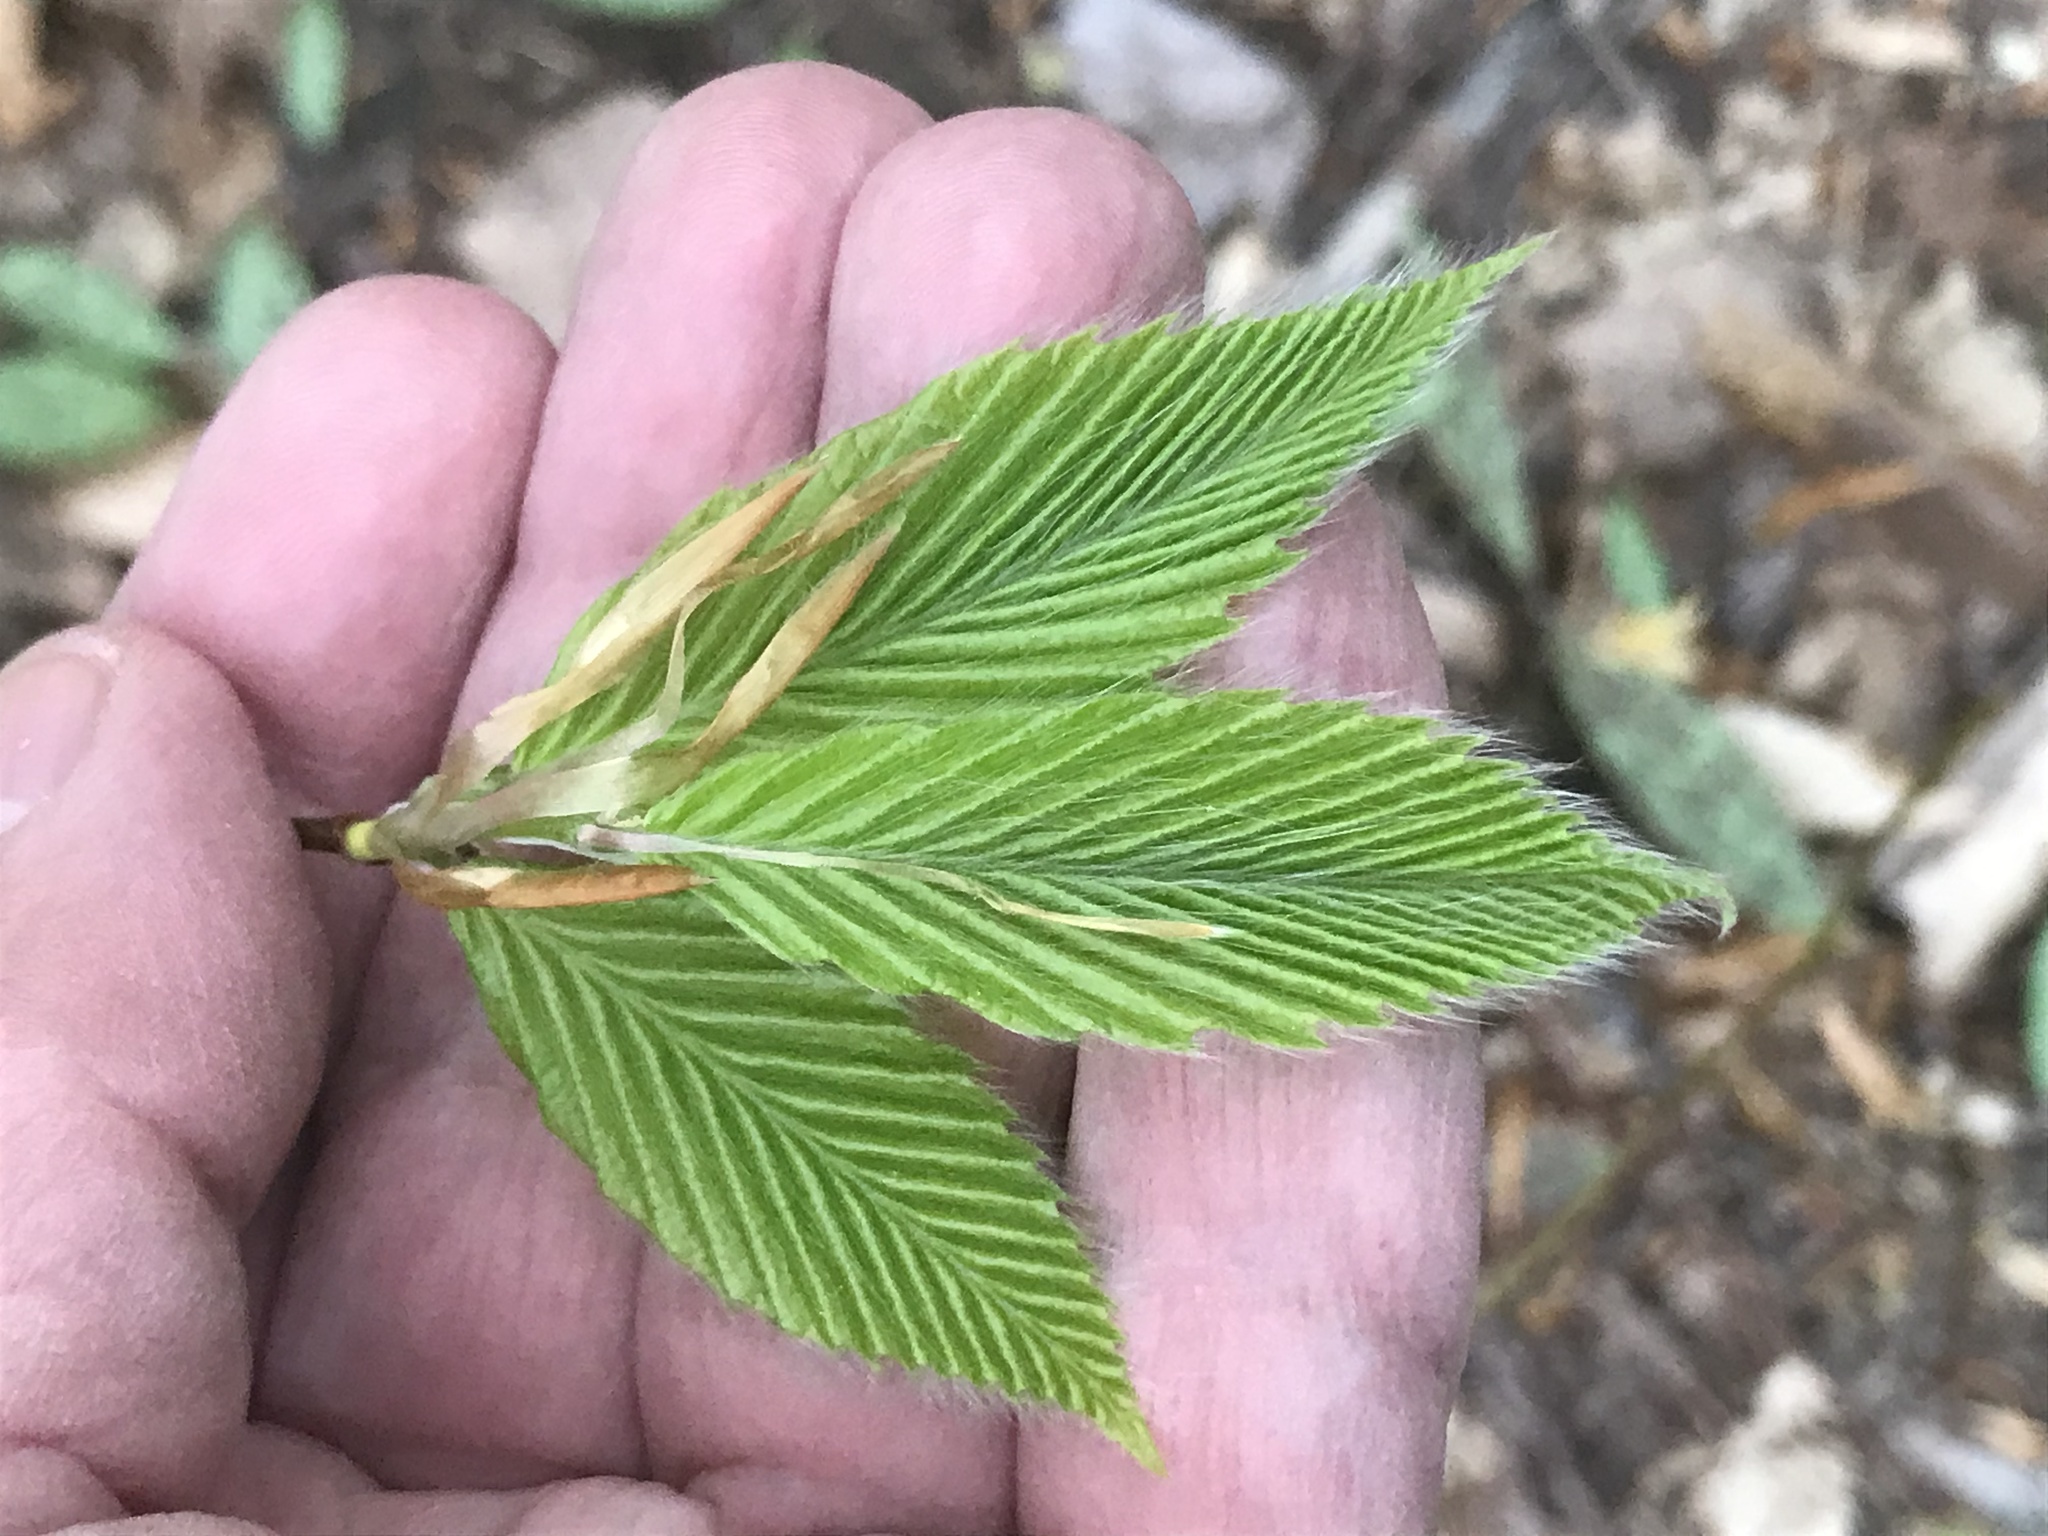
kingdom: Plantae
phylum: Tracheophyta
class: Magnoliopsida
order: Fagales
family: Fagaceae
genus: Fagus
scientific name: Fagus grandifolia
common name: American beech
